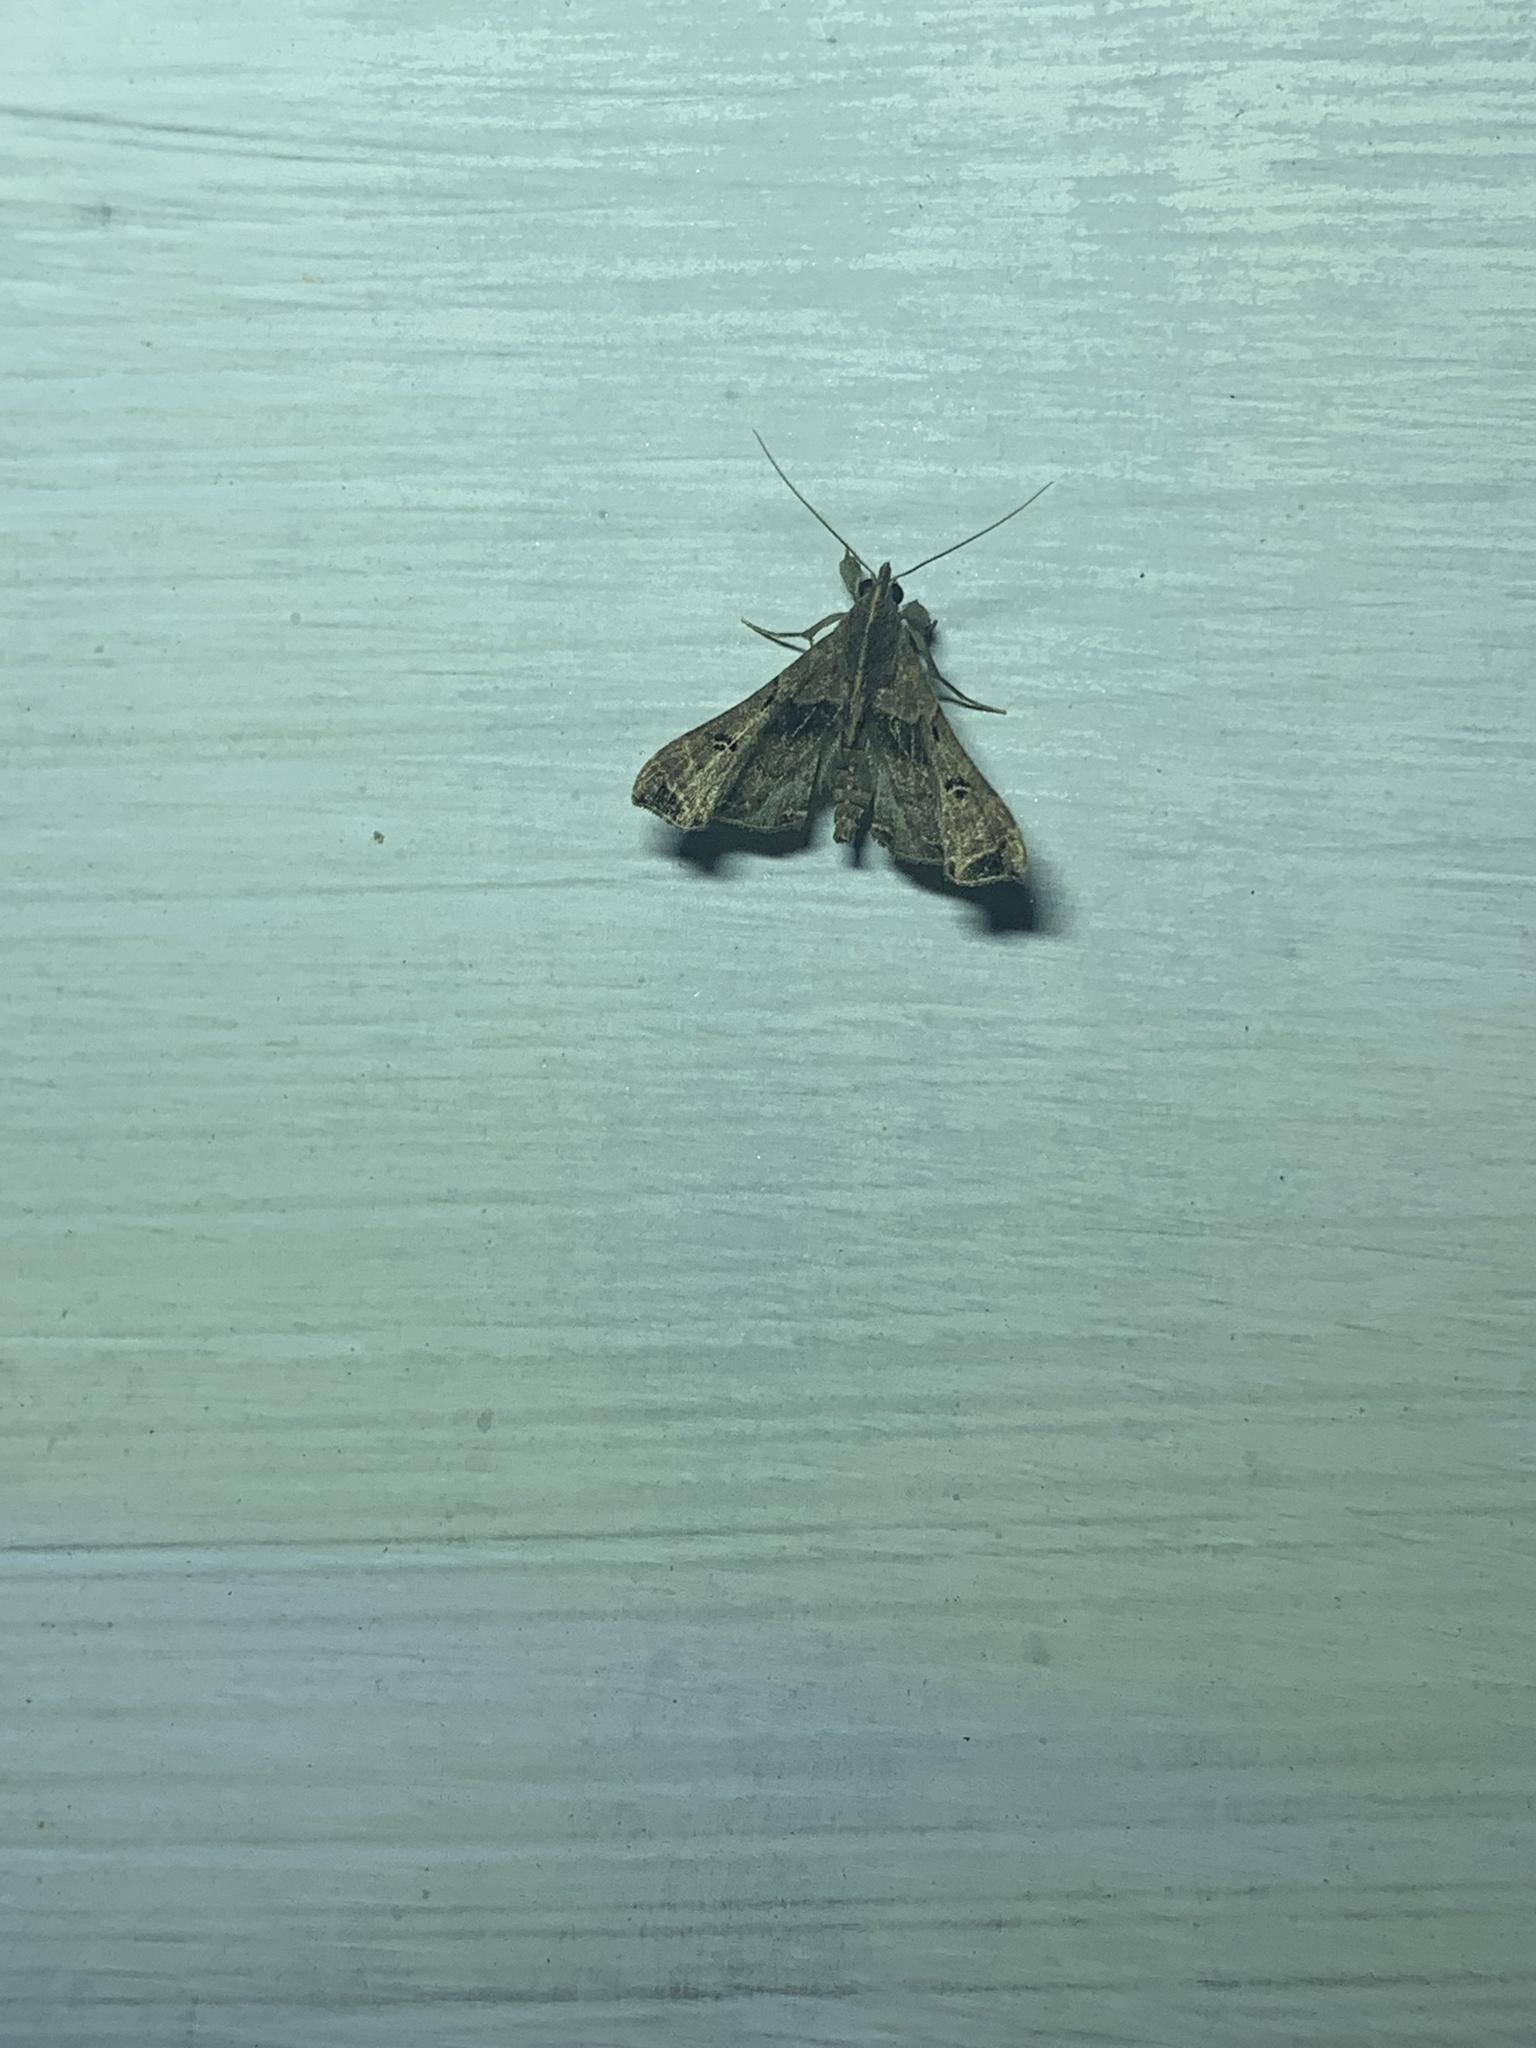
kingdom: Animalia
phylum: Arthropoda
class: Insecta
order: Lepidoptera
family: Erebidae
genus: Palthis
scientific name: Palthis asopialis
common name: Faint-spotted palthis moth
